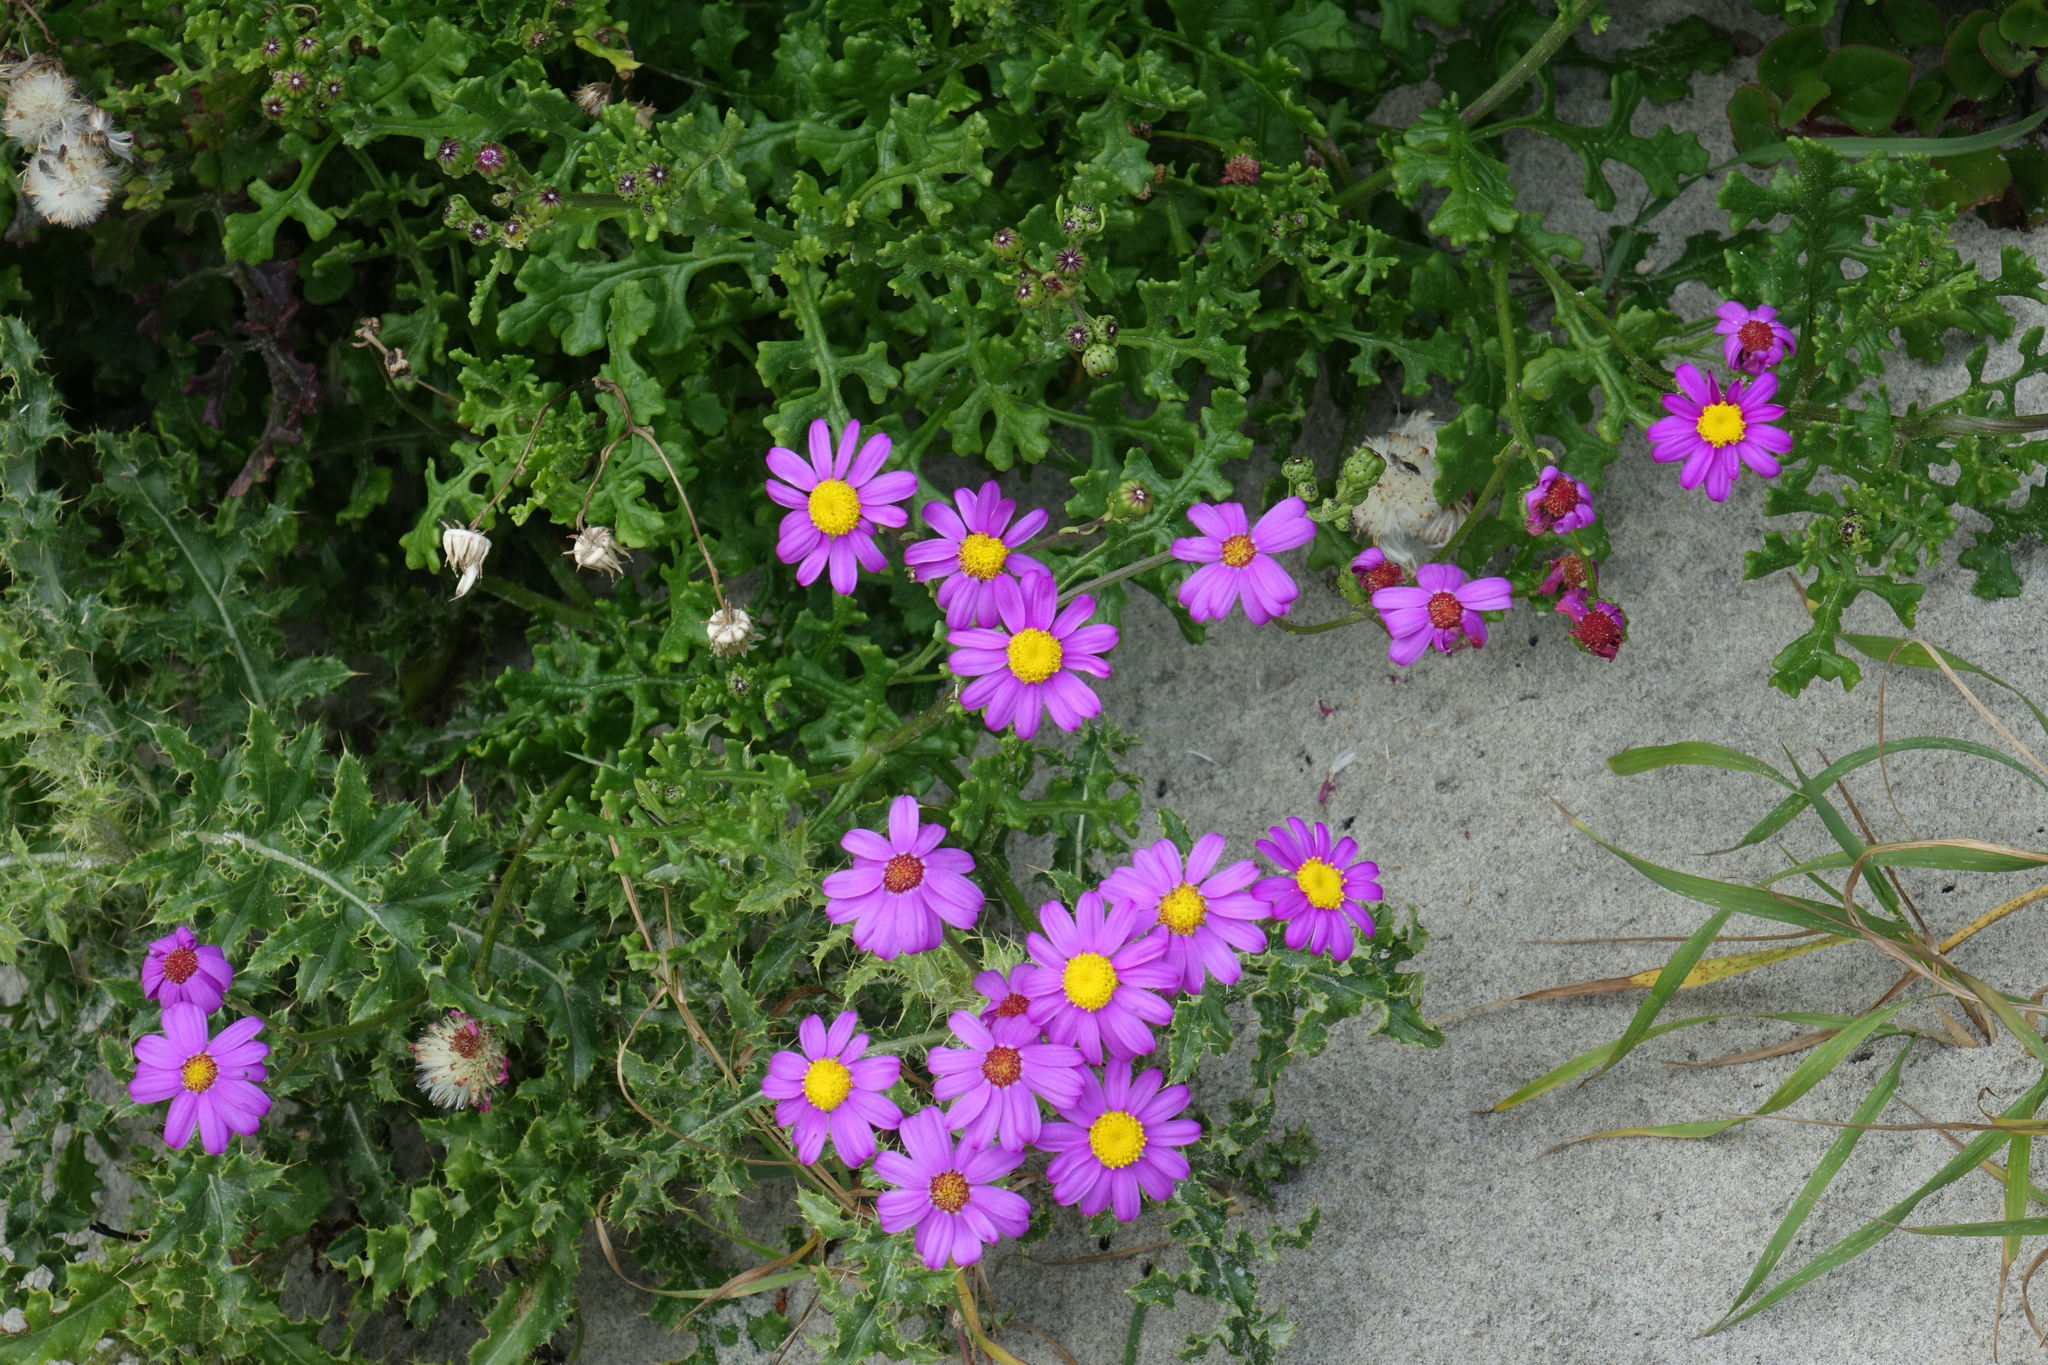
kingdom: Plantae
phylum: Tracheophyta
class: Magnoliopsida
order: Asterales
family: Asteraceae
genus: Senecio
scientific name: Senecio elegans
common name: Purple groundsel
